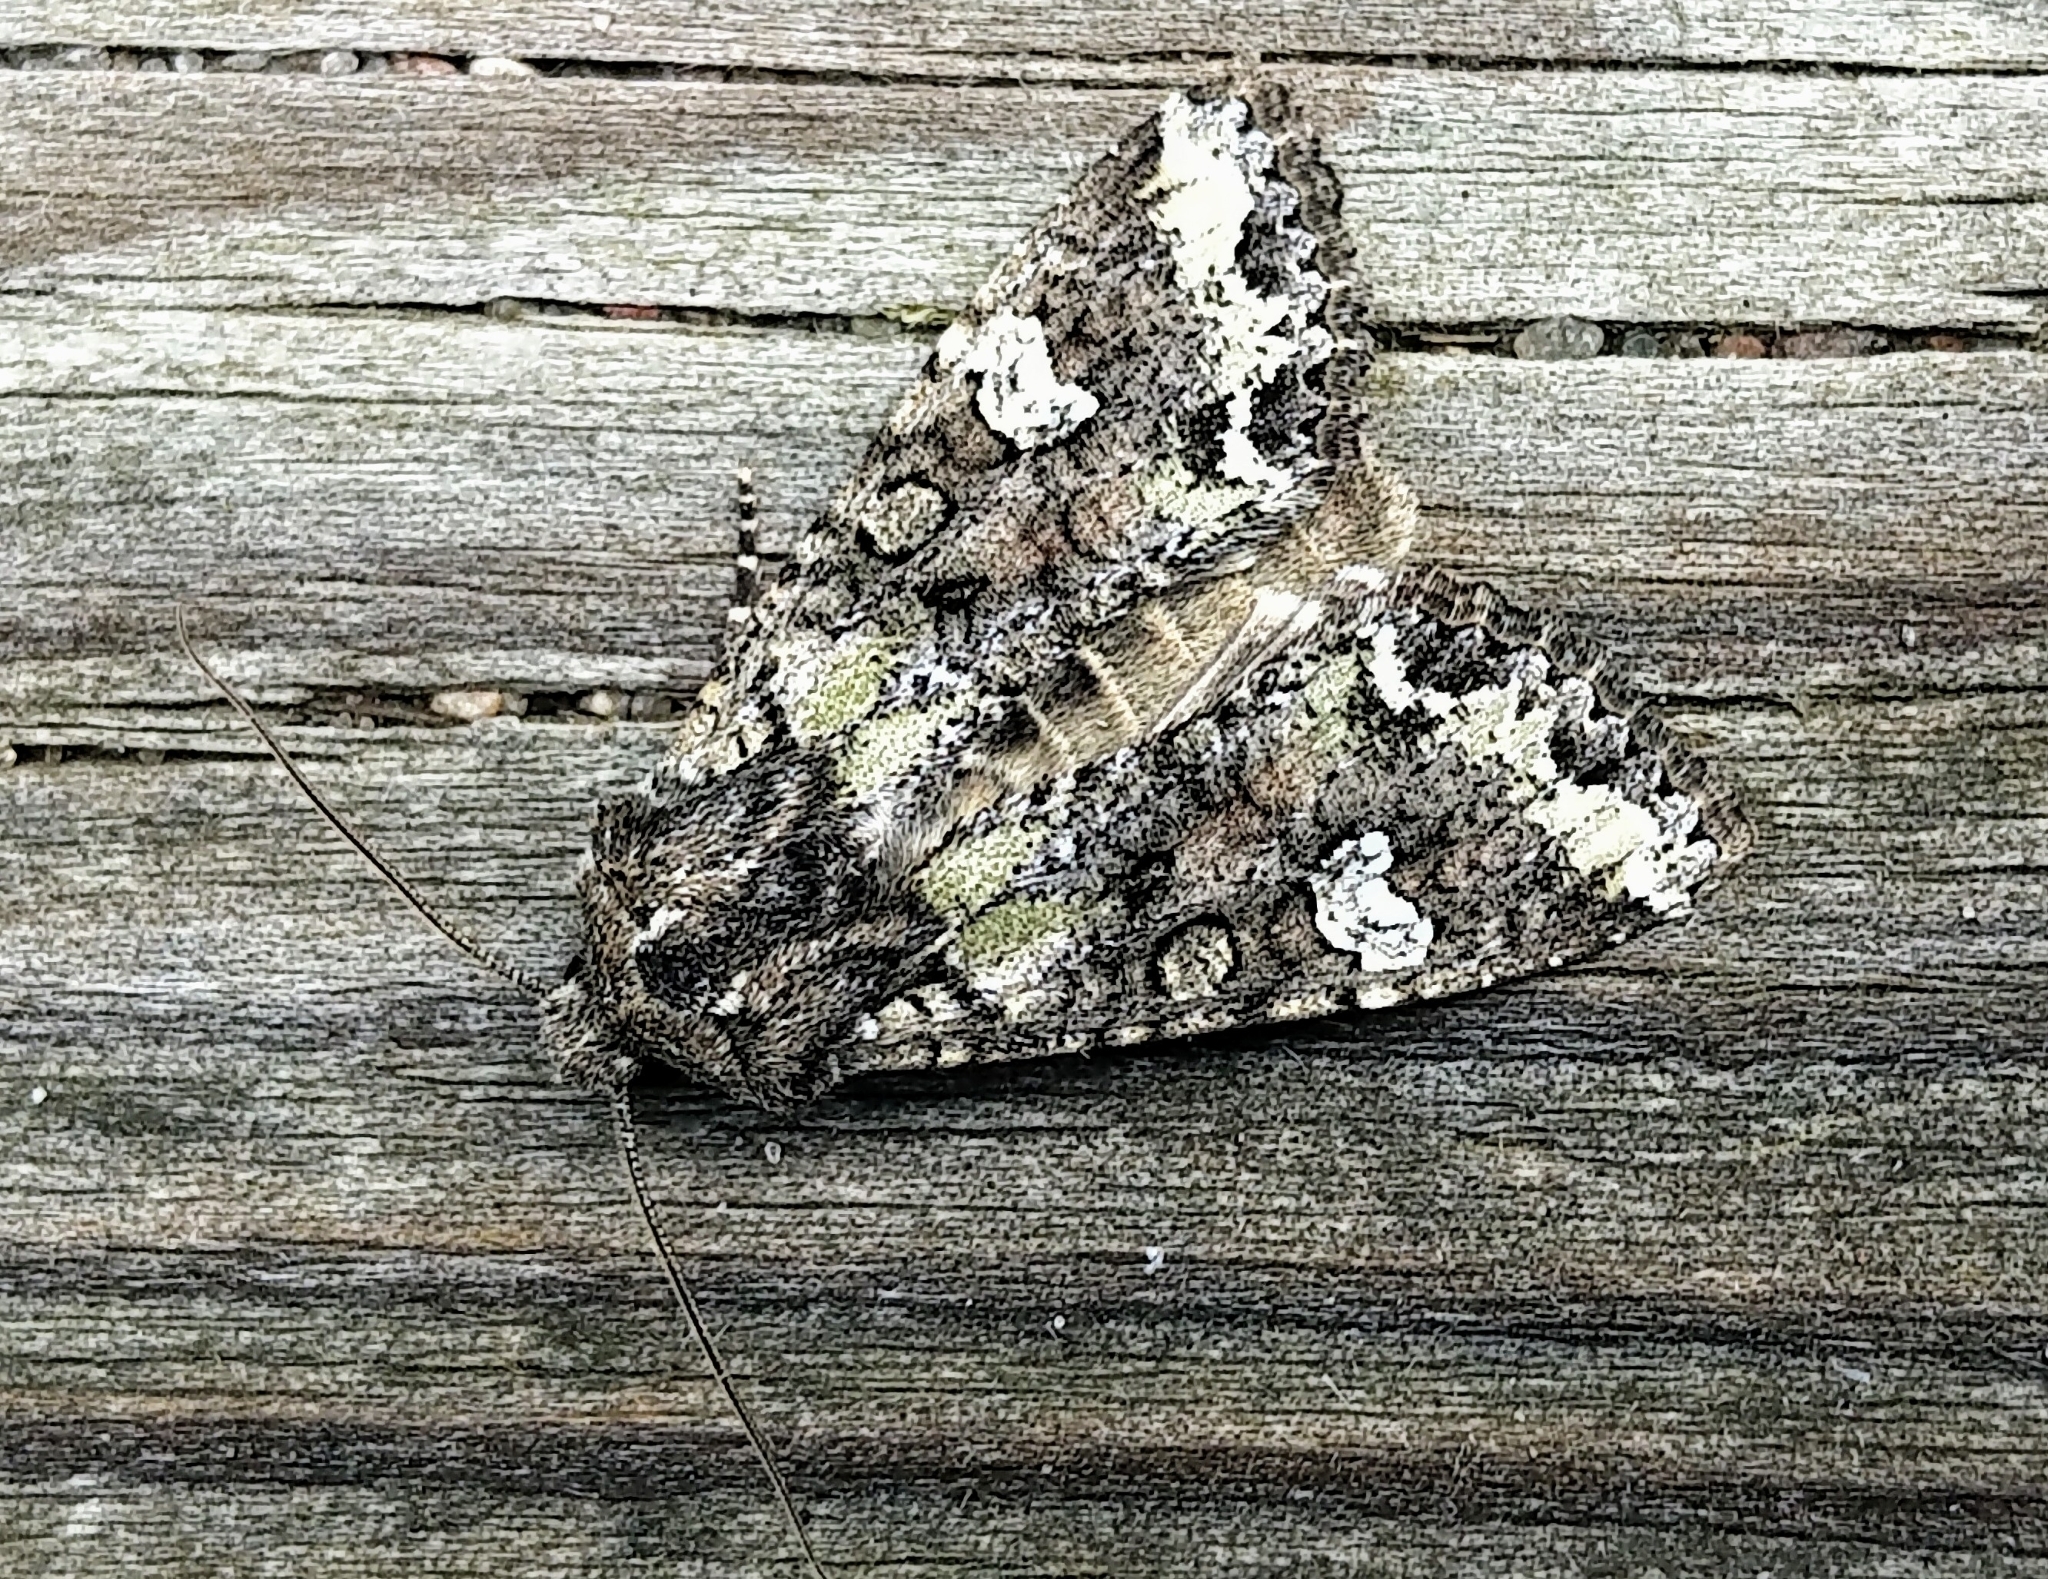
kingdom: Animalia
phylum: Arthropoda
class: Insecta
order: Lepidoptera
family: Noctuidae
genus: Mamestra
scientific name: Mamestra configurata
